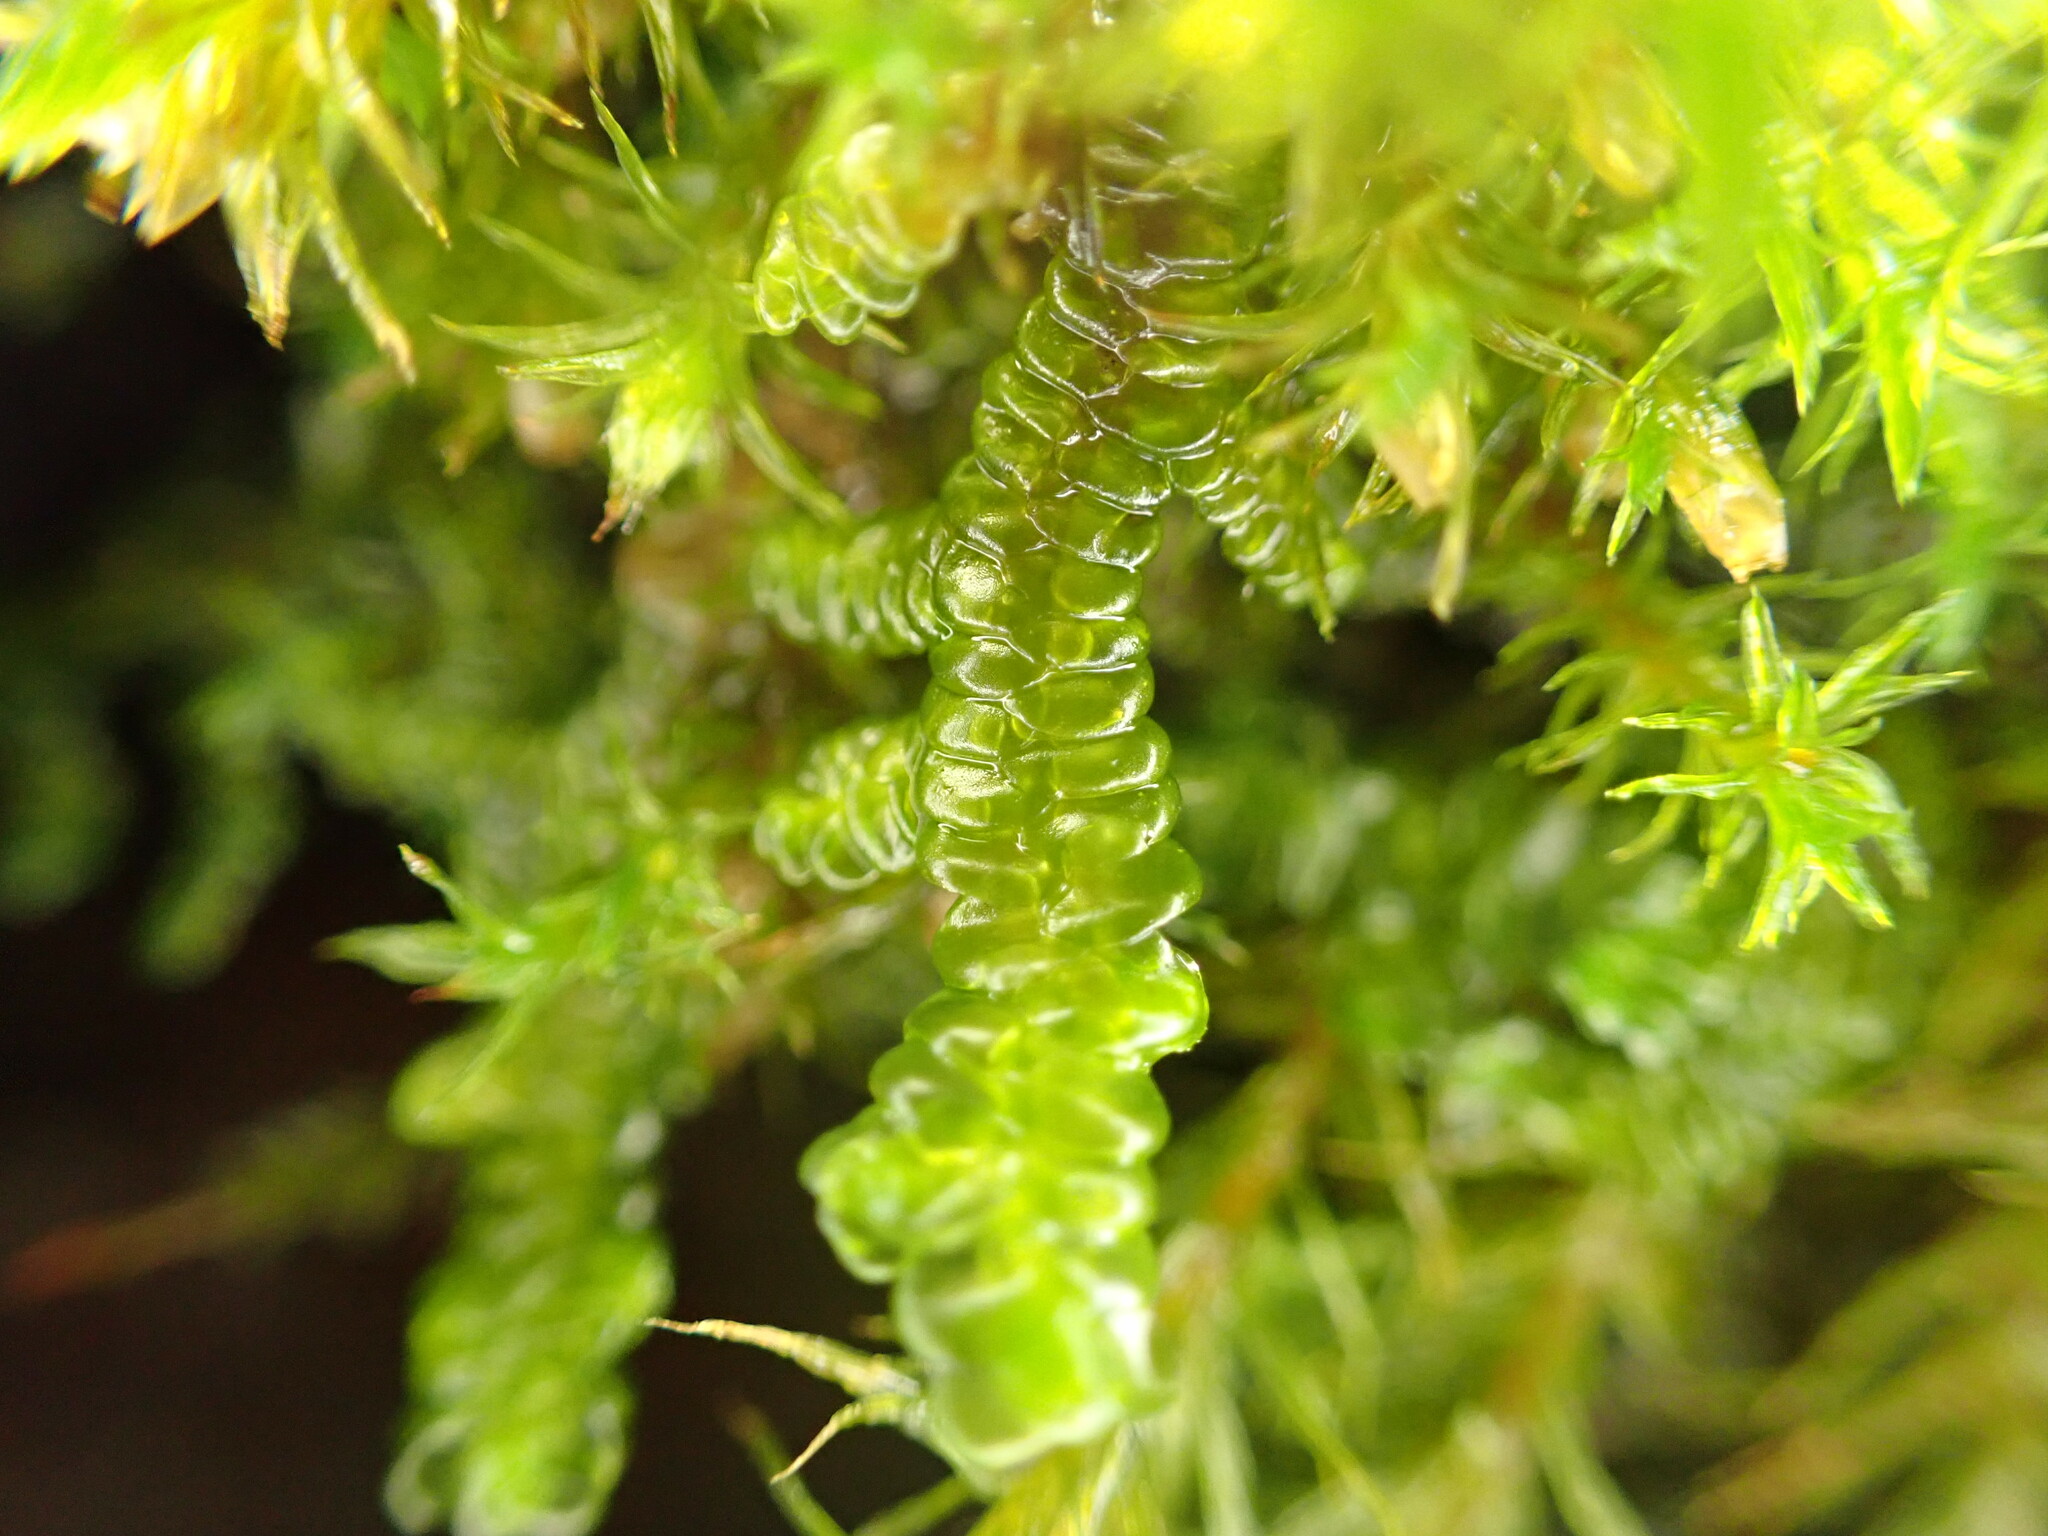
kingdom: Plantae
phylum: Marchantiophyta
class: Jungermanniopsida
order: Porellales
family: Porellaceae
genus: Porella
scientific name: Porella navicularis
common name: Tree ruffle liverwort
